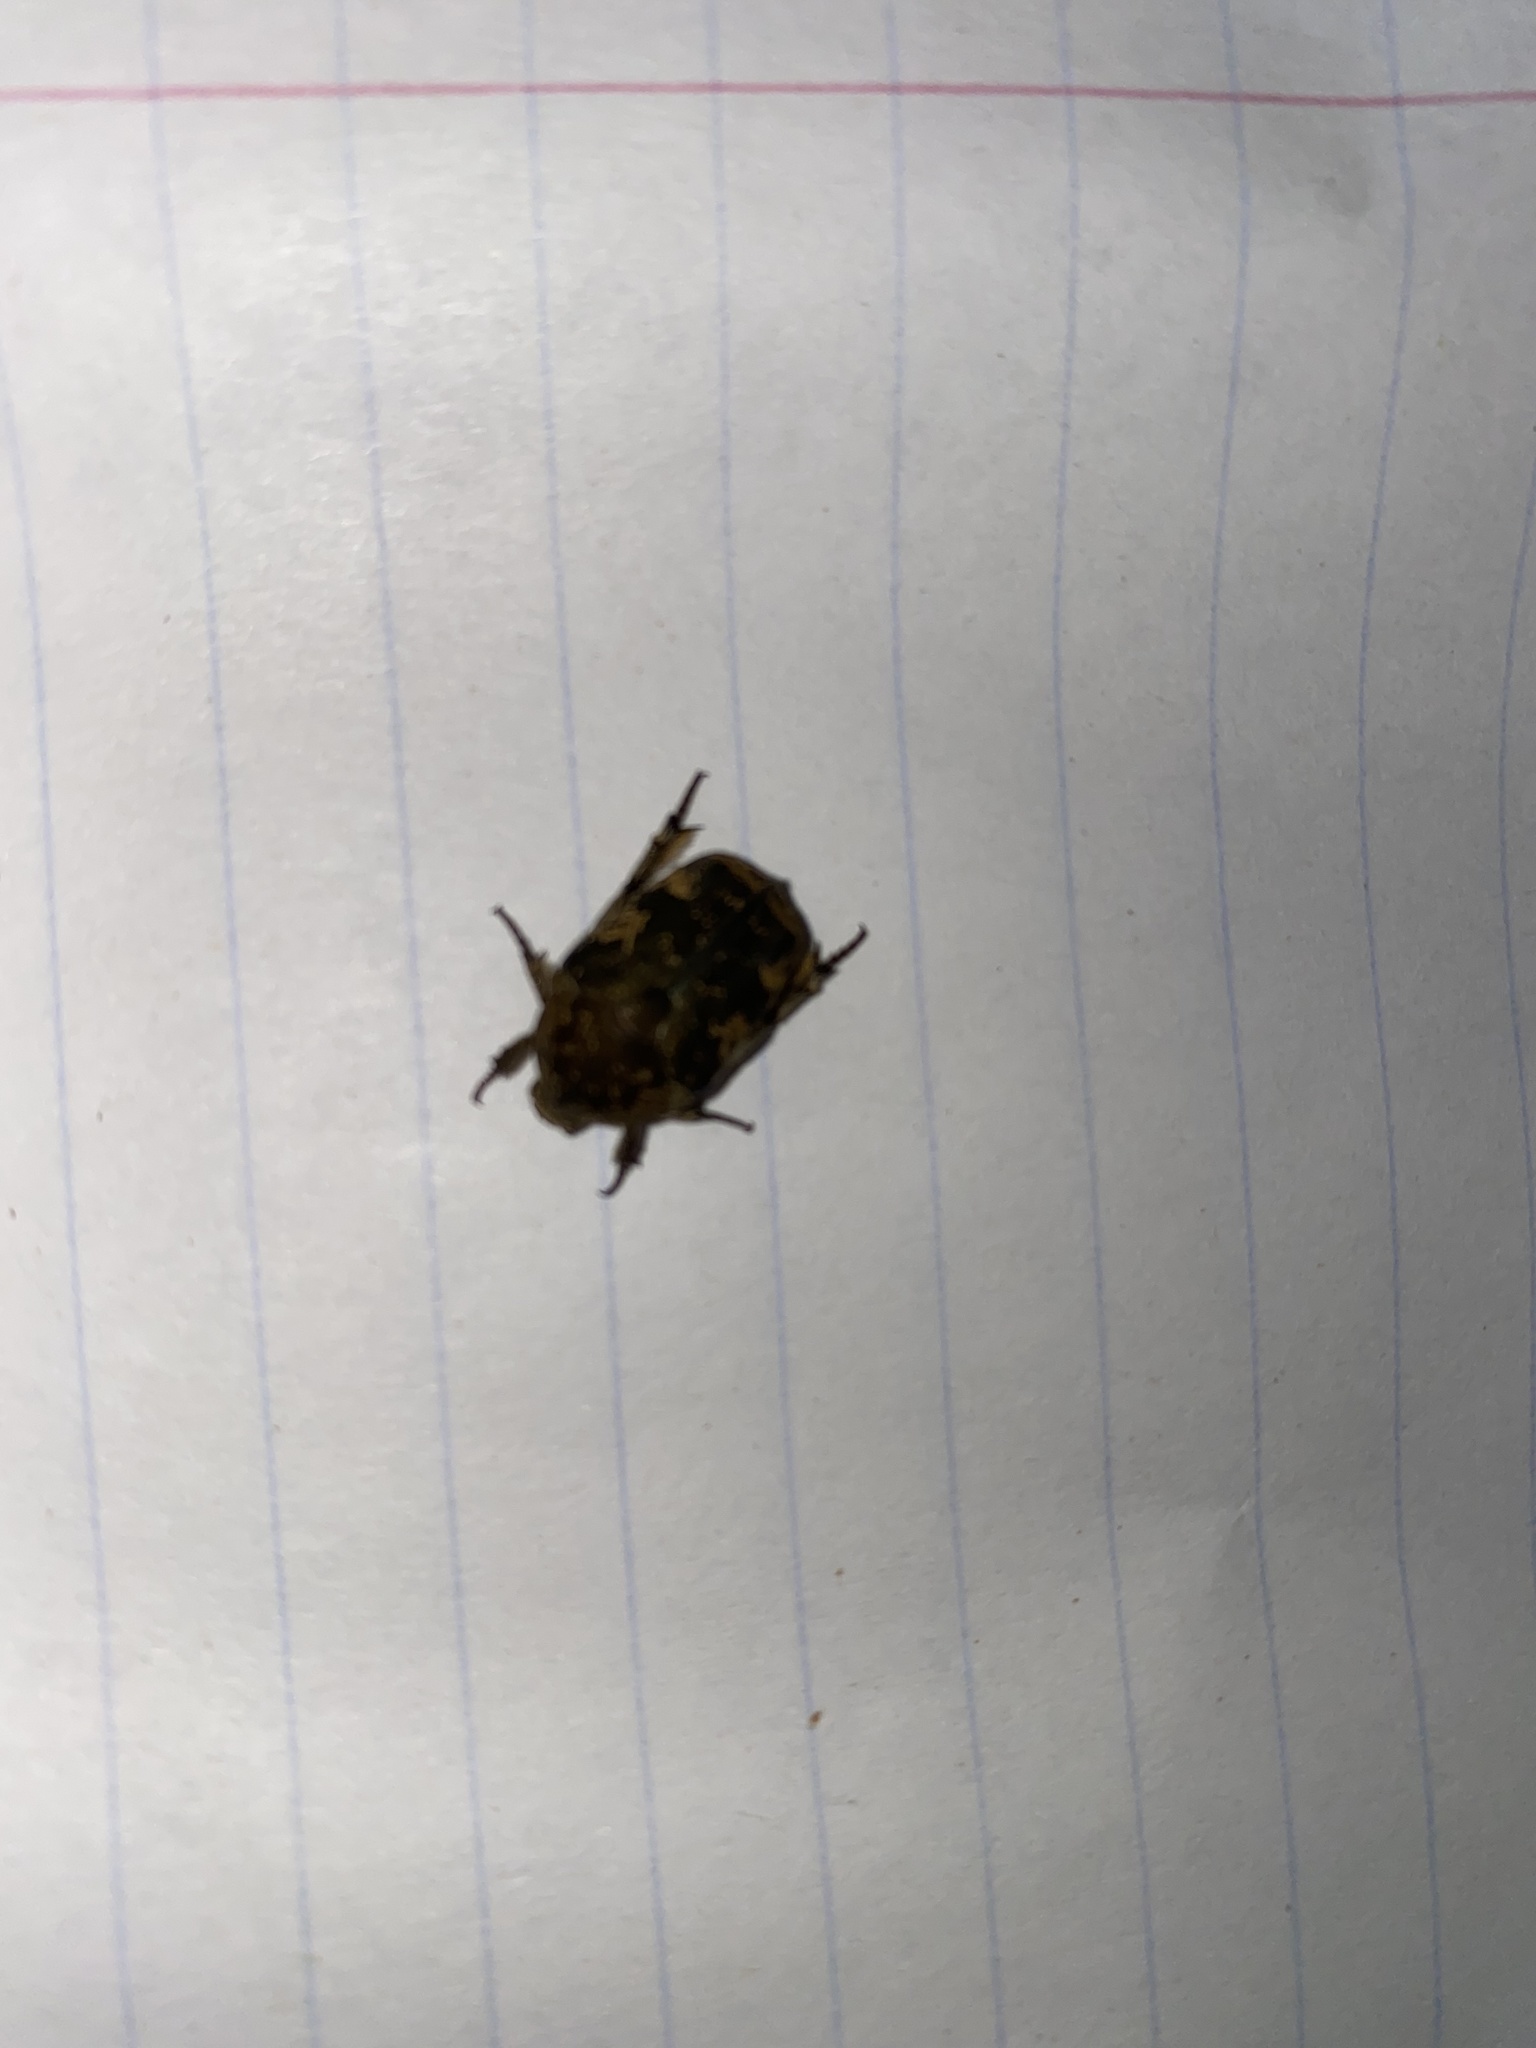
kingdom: Animalia
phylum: Arthropoda
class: Insecta
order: Coleoptera
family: Scarabaeidae
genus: Protaetia
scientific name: Protaetia fusca
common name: Mango flower beetle
